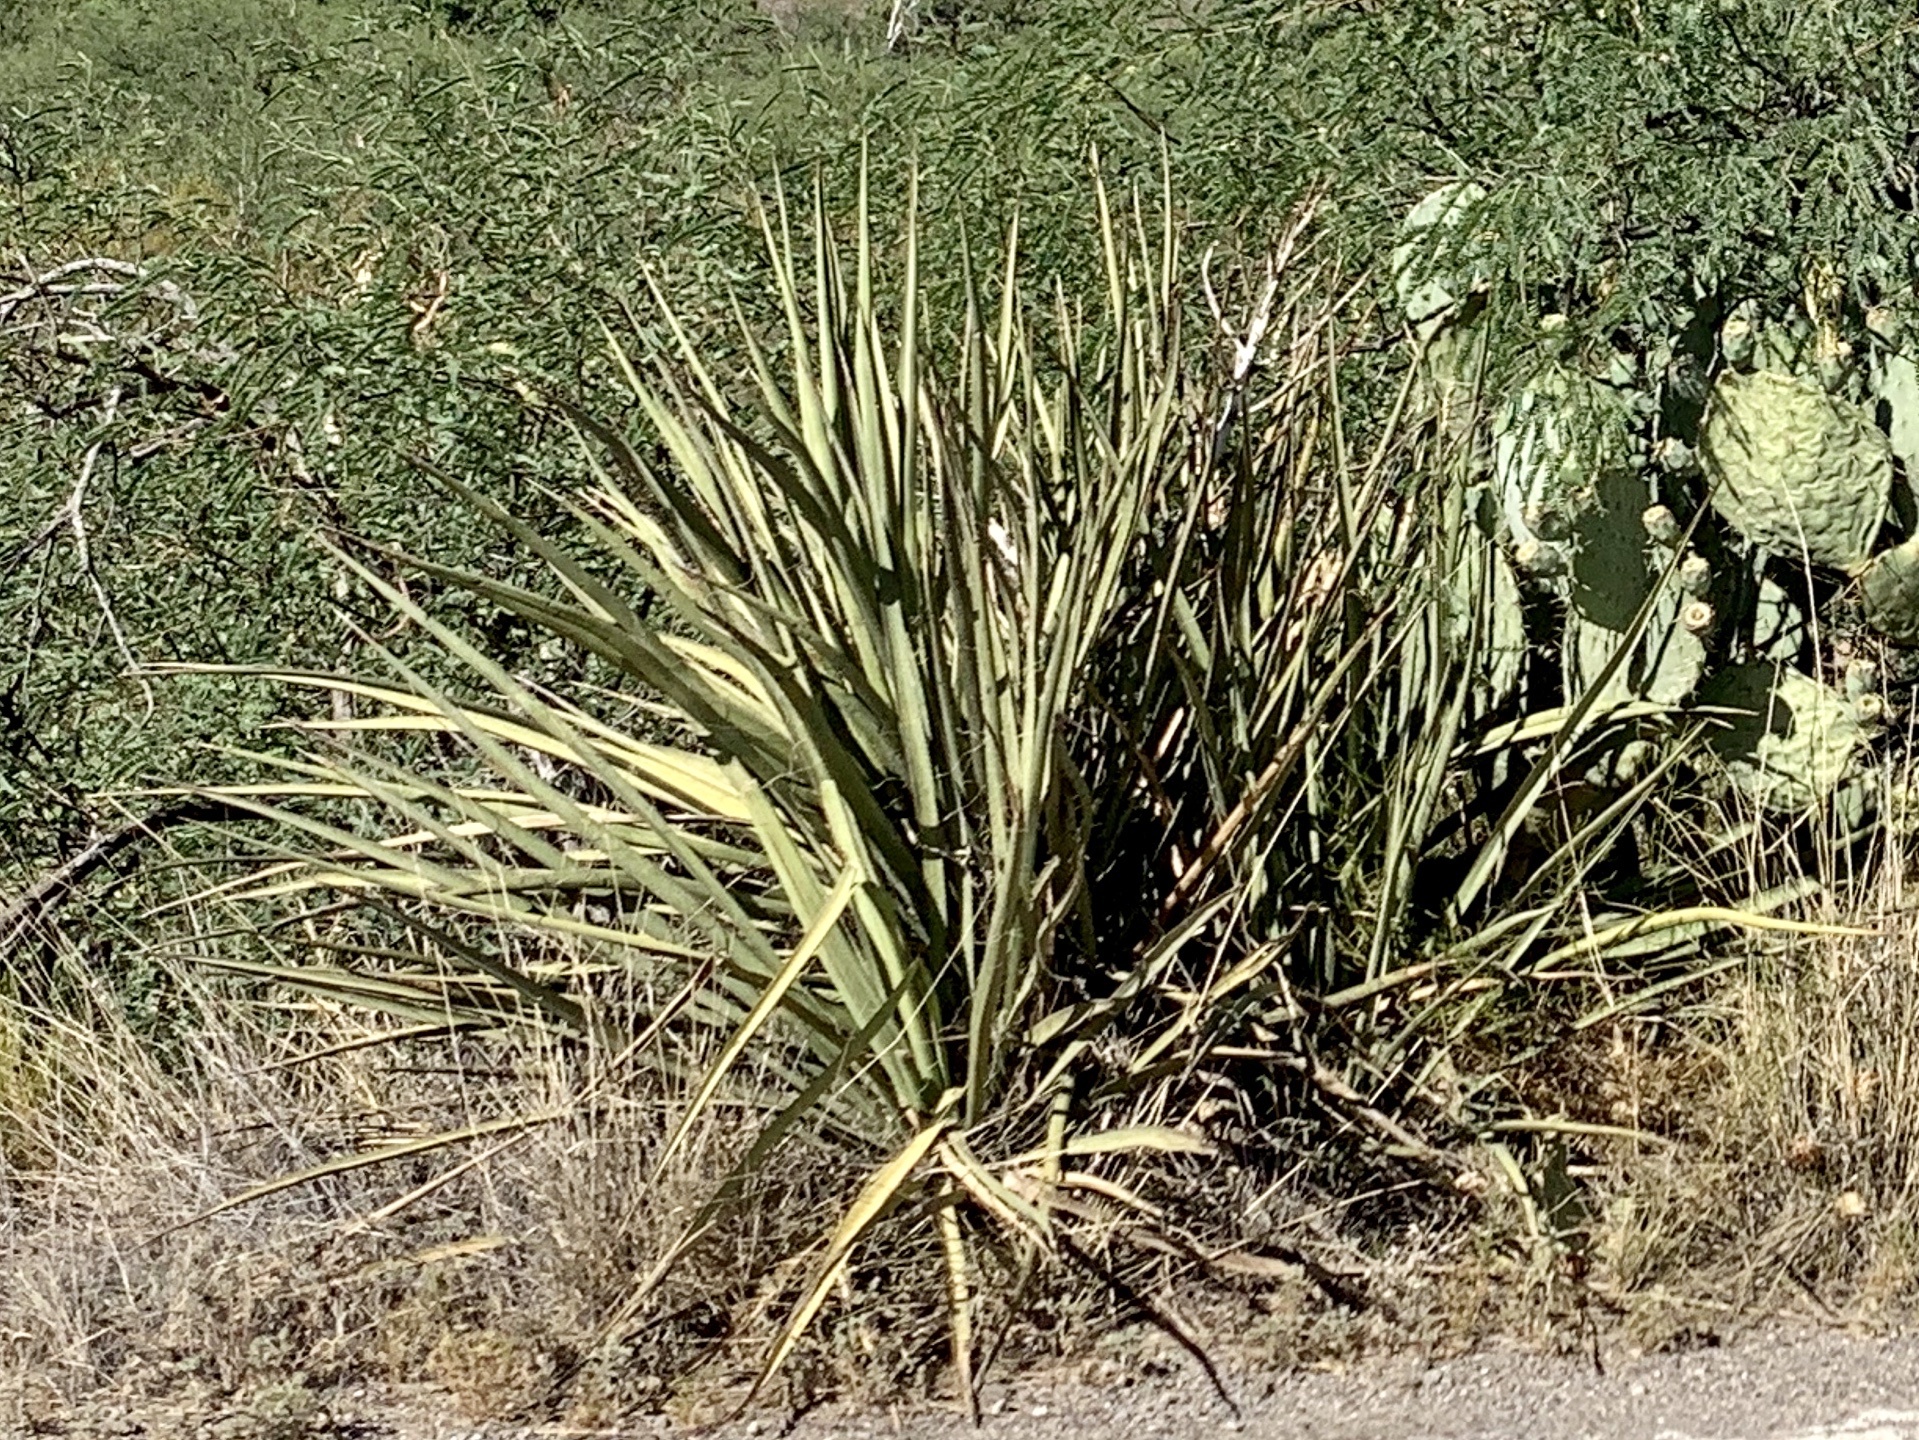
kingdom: Plantae
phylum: Tracheophyta
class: Liliopsida
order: Asparagales
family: Asparagaceae
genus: Yucca
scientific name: Yucca baccata
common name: Banana yucca
